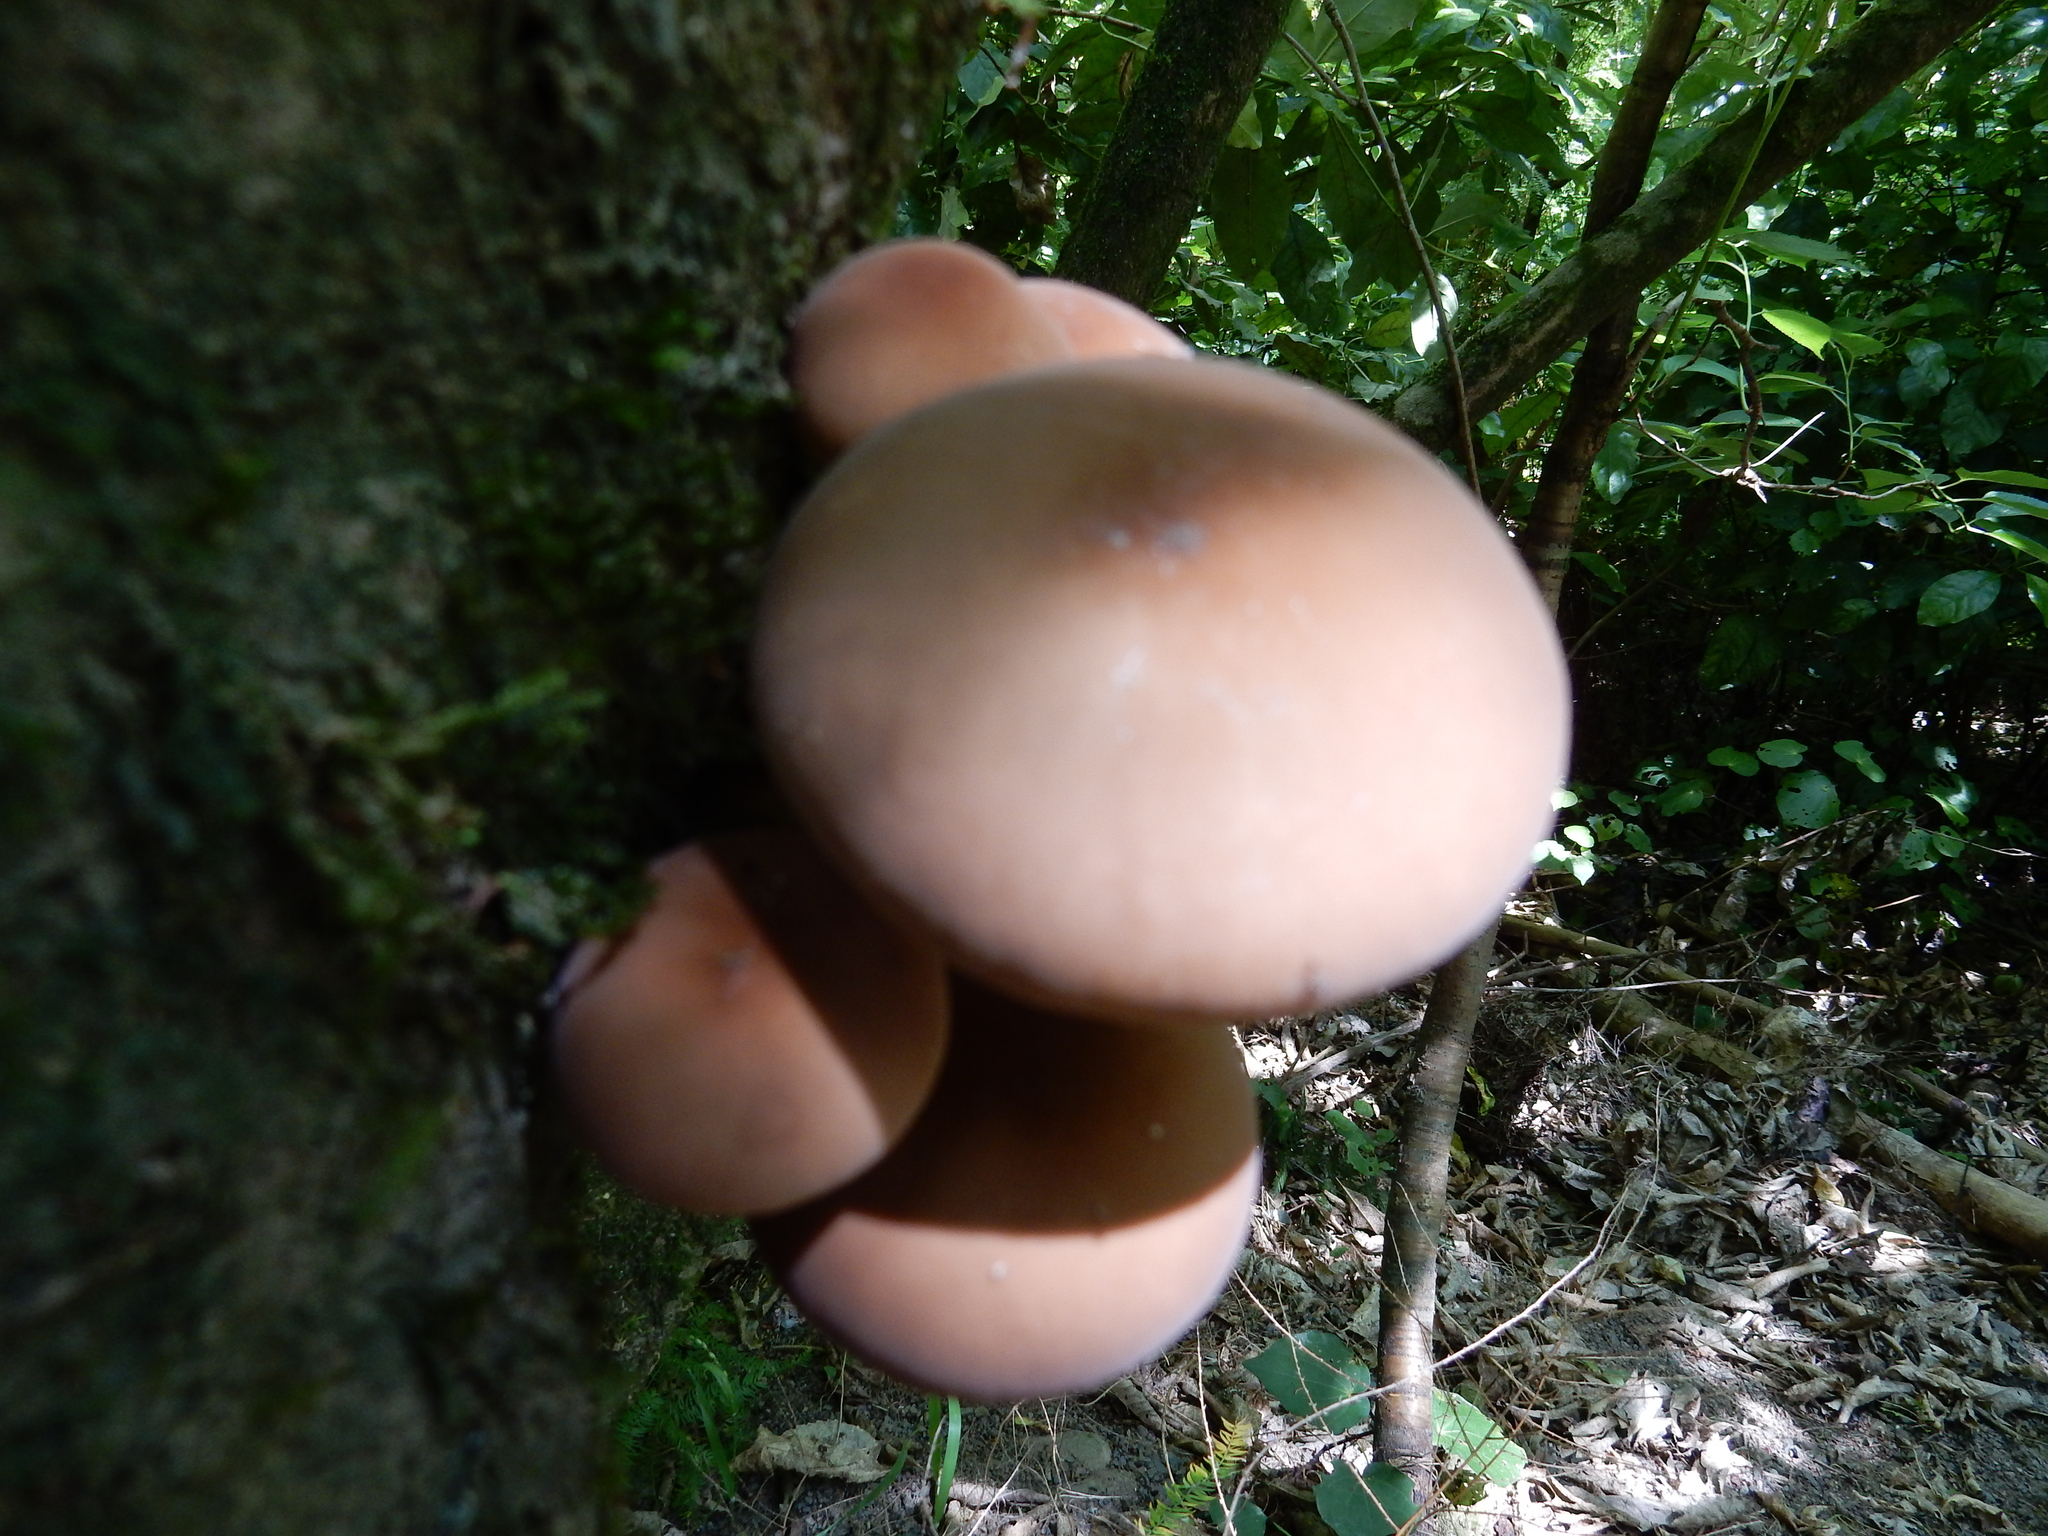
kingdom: Fungi
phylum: Basidiomycota
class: Agaricomycetes
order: Agaricales
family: Tubariaceae
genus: Cyclocybe
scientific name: Cyclocybe parasitica
